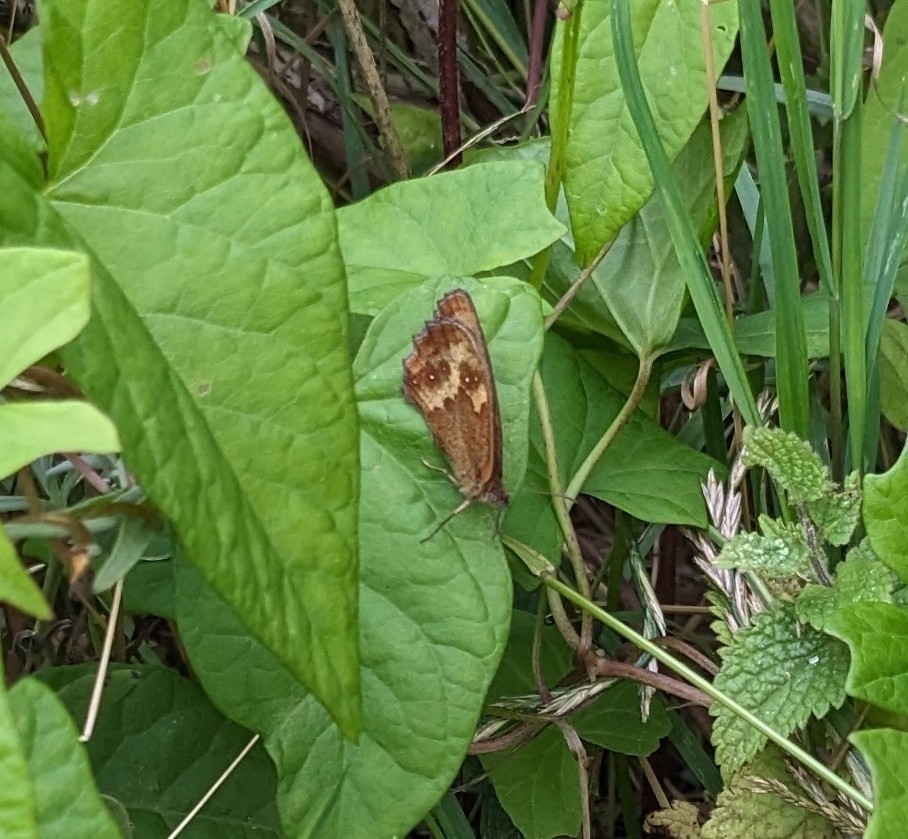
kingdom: Animalia
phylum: Arthropoda
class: Insecta
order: Lepidoptera
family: Nymphalidae
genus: Pyronia
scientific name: Pyronia tithonus
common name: Gatekeeper
